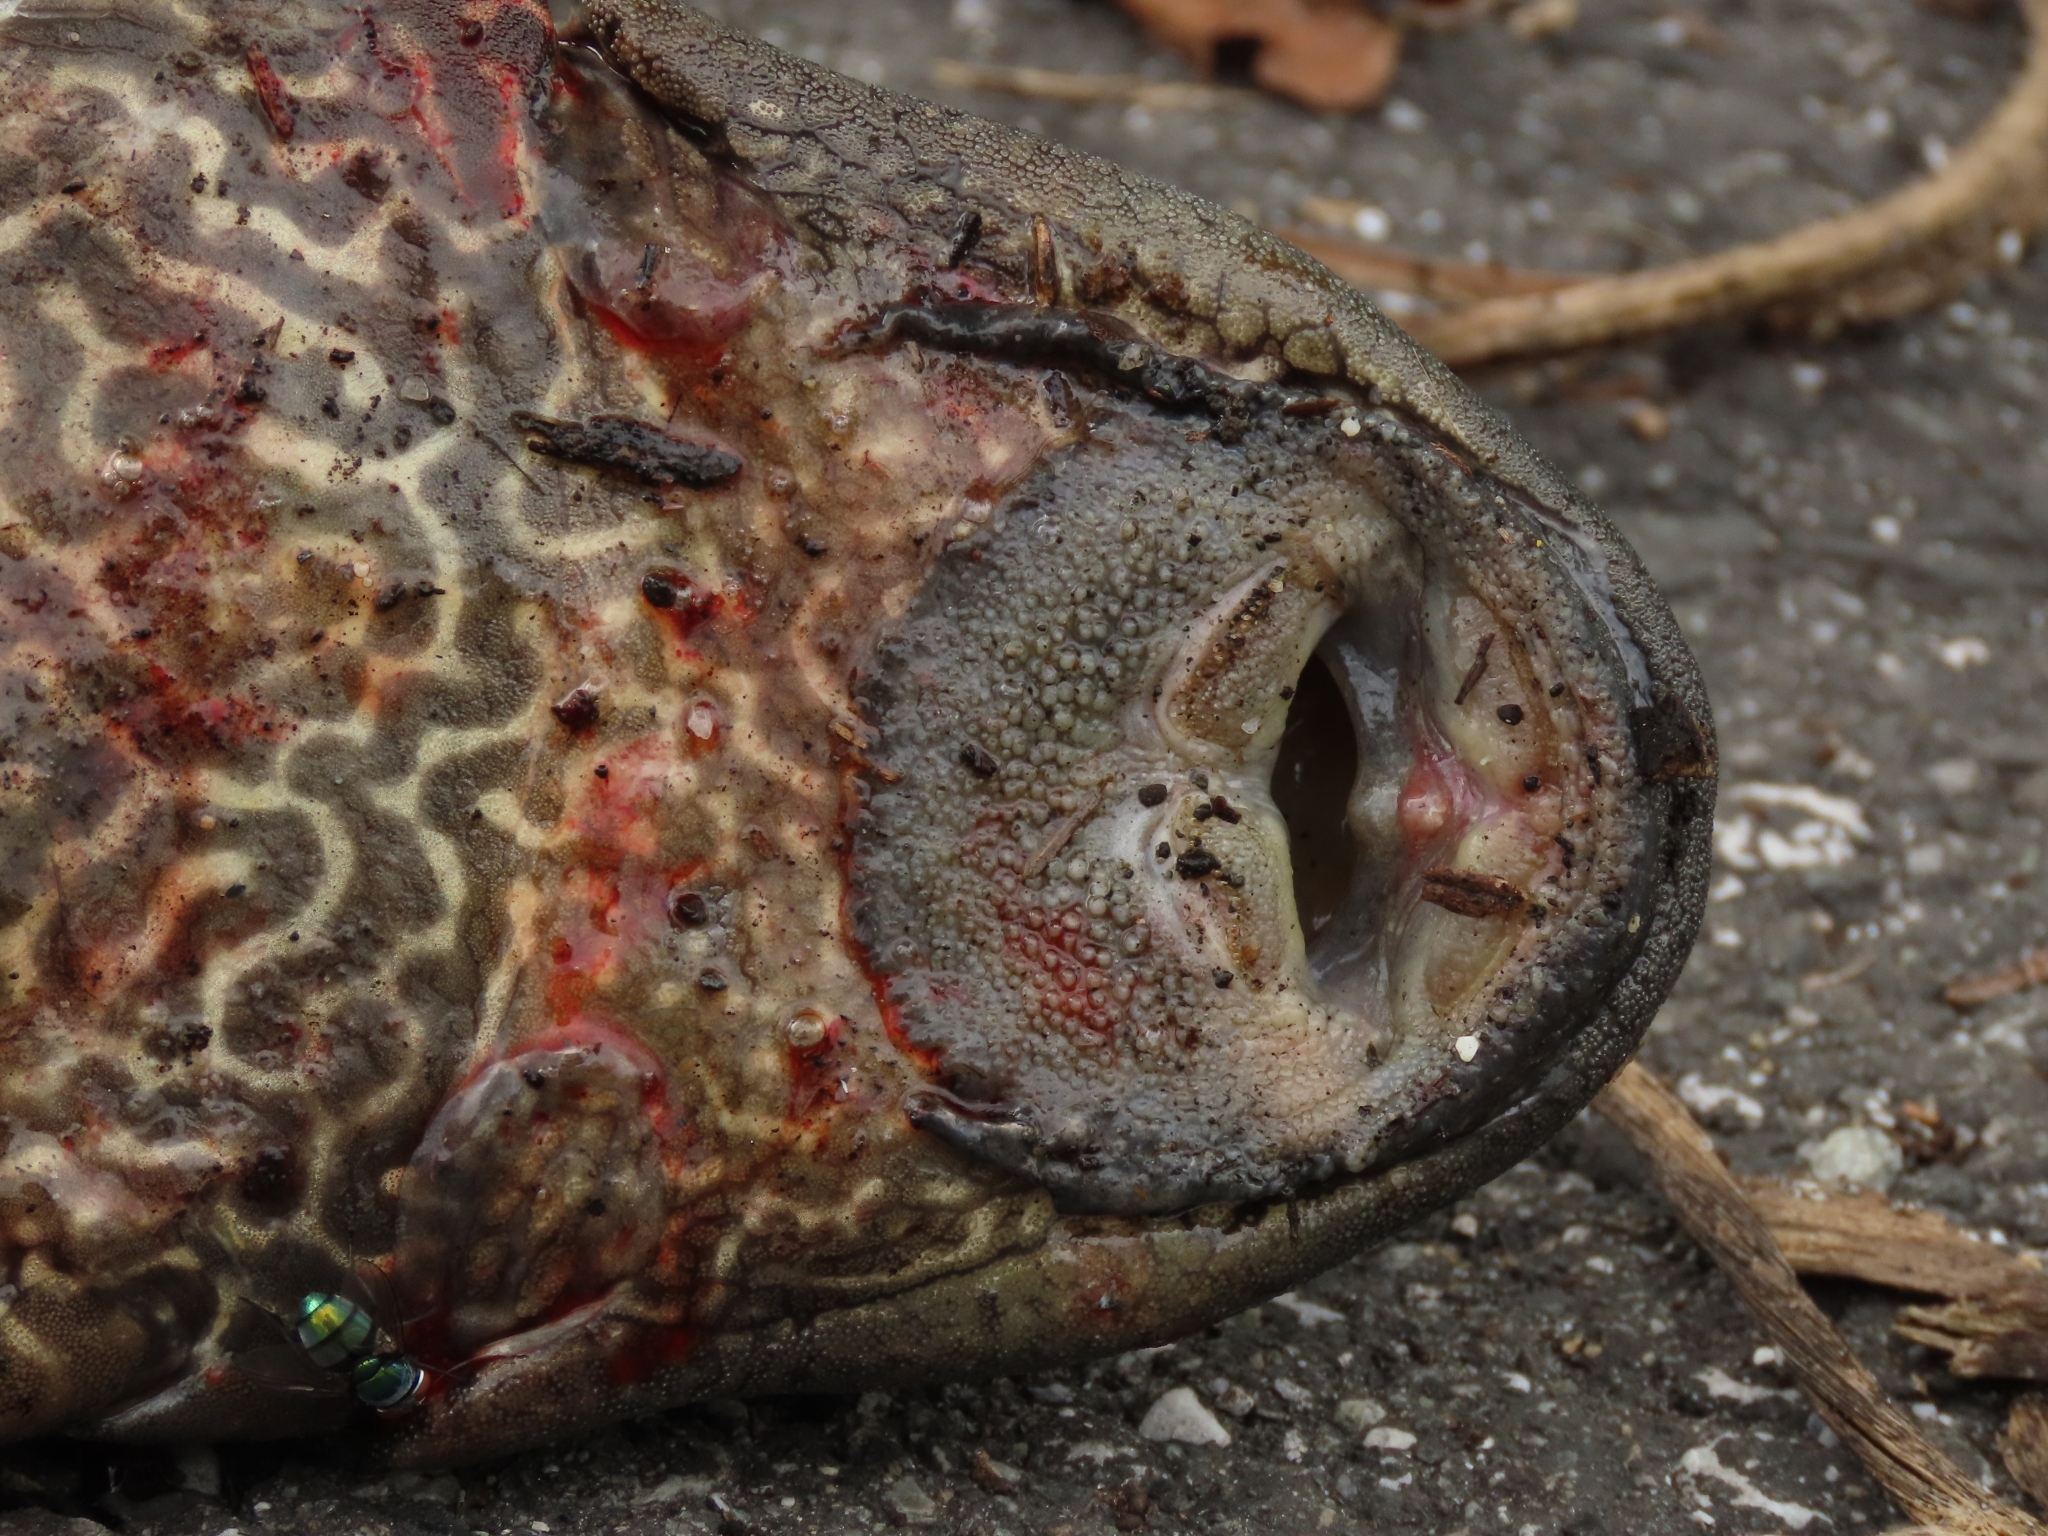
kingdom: Animalia
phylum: Chordata
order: Siluriformes
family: Loricariidae
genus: Pterygoplichthys
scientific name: Pterygoplichthys
